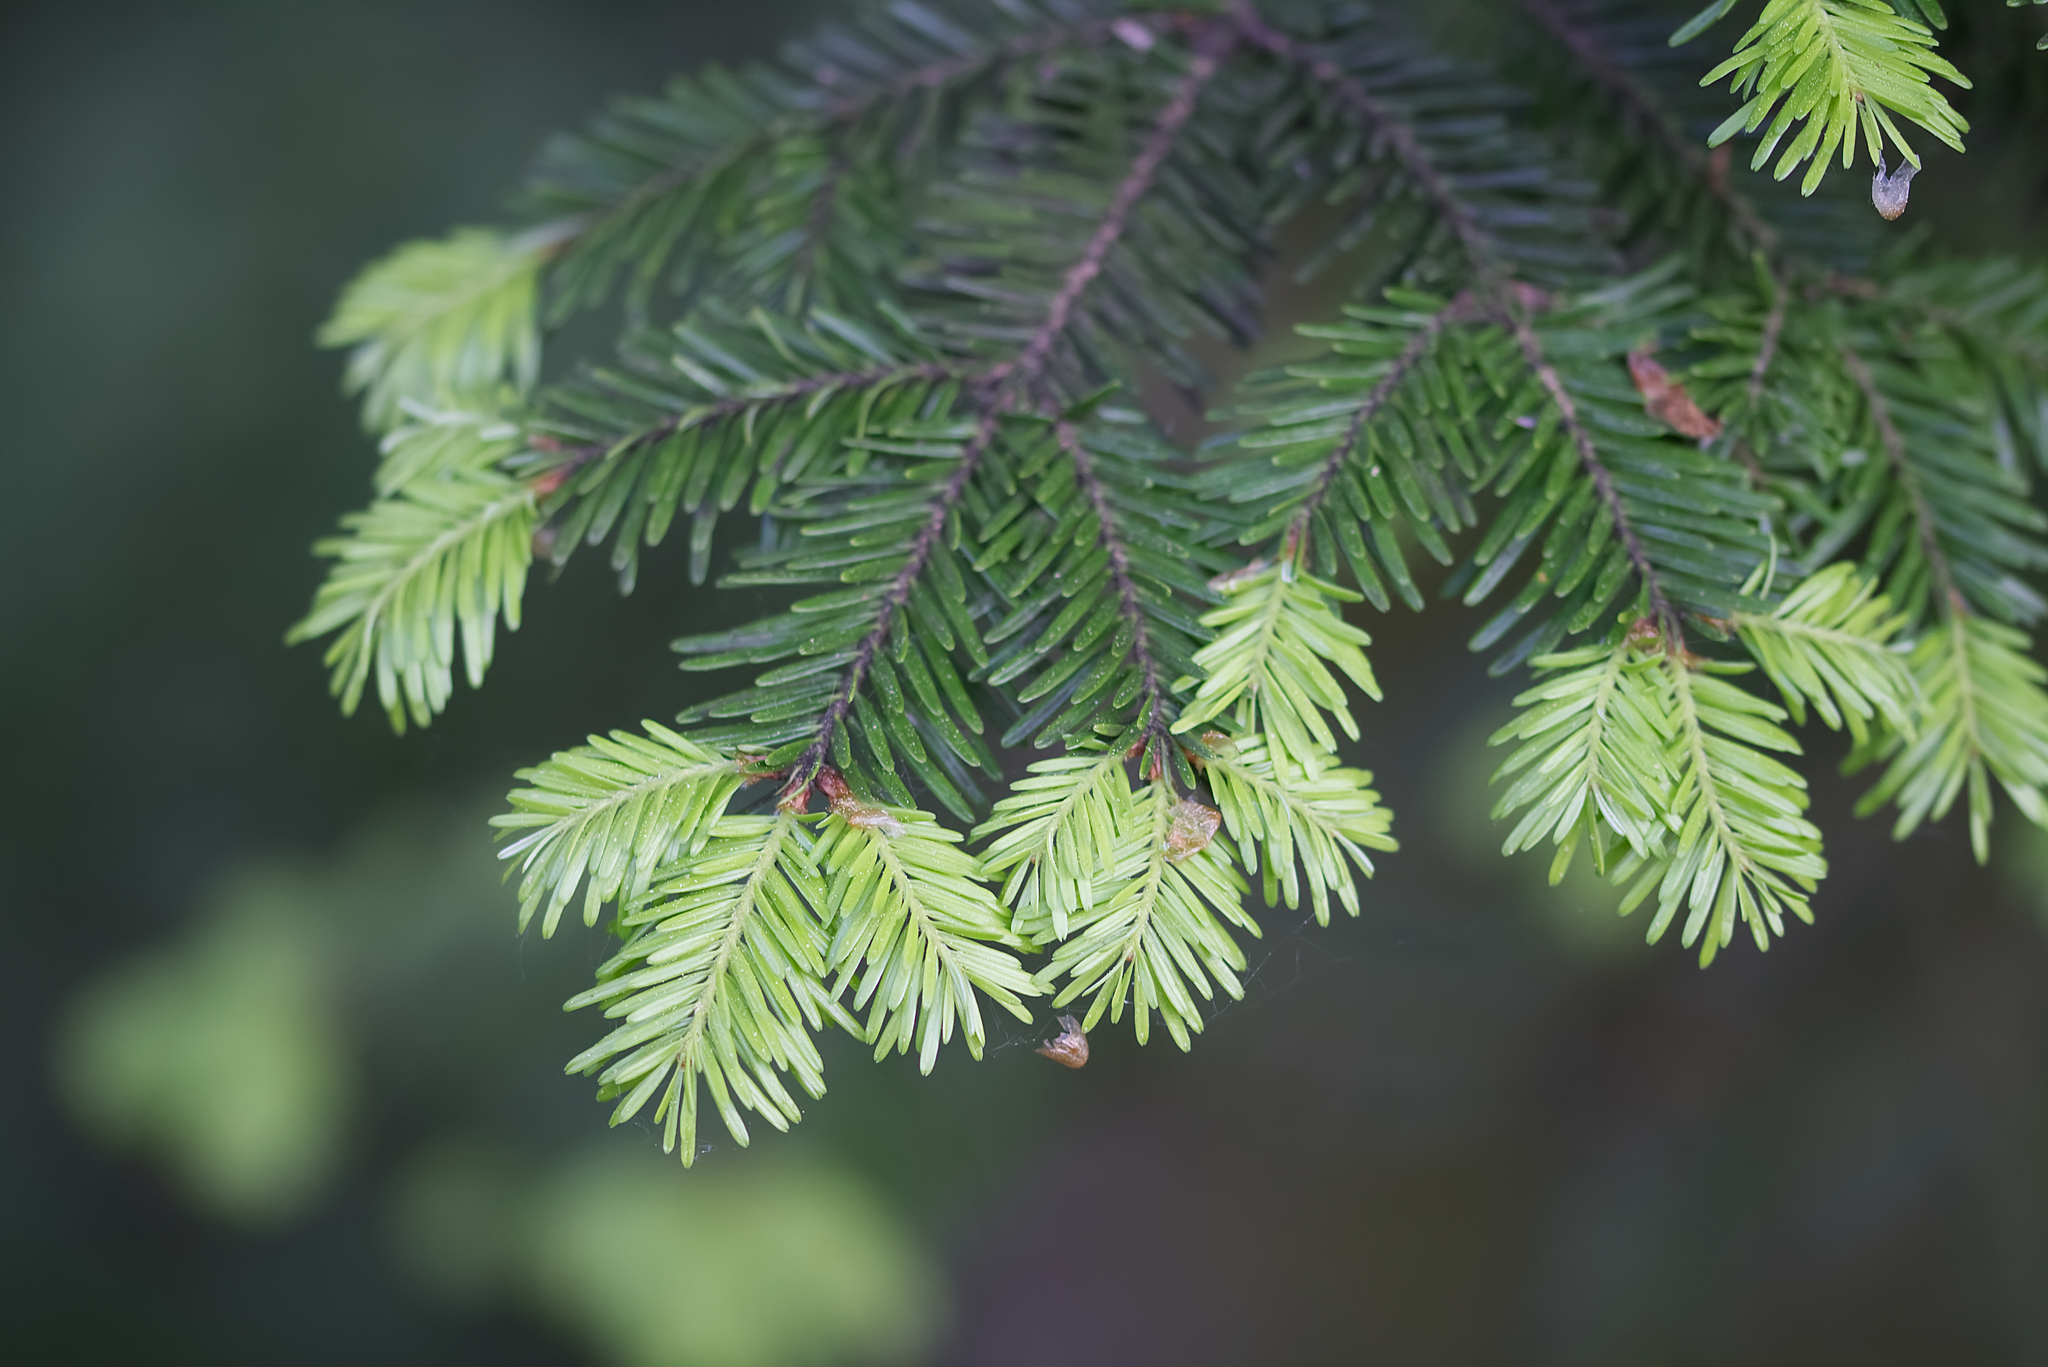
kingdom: Plantae
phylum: Tracheophyta
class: Pinopsida
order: Pinales
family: Pinaceae
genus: Abies
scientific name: Abies alba
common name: Silver fir
